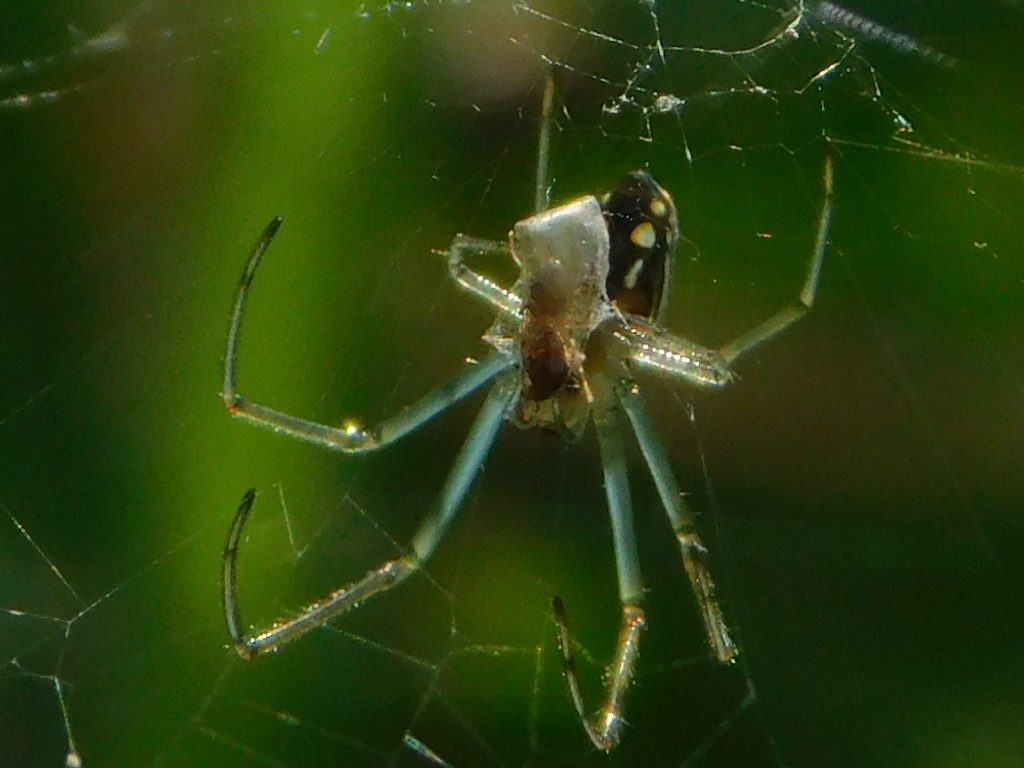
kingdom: Animalia
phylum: Arthropoda
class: Arachnida
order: Araneae
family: Tetragnathidae
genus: Leucauge
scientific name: Leucauge argyra
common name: Longjawed orb weavers
